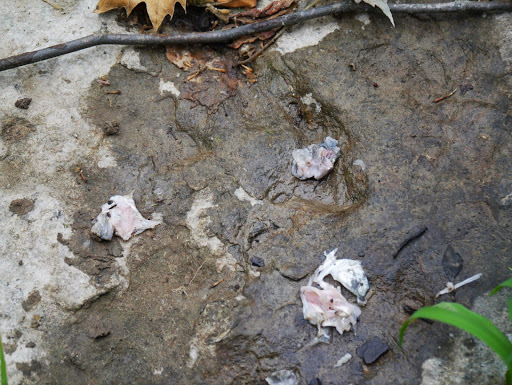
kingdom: Animalia
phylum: Chordata
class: Mammalia
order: Carnivora
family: Procyonidae
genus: Procyon
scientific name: Procyon lotor
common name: Raccoon
